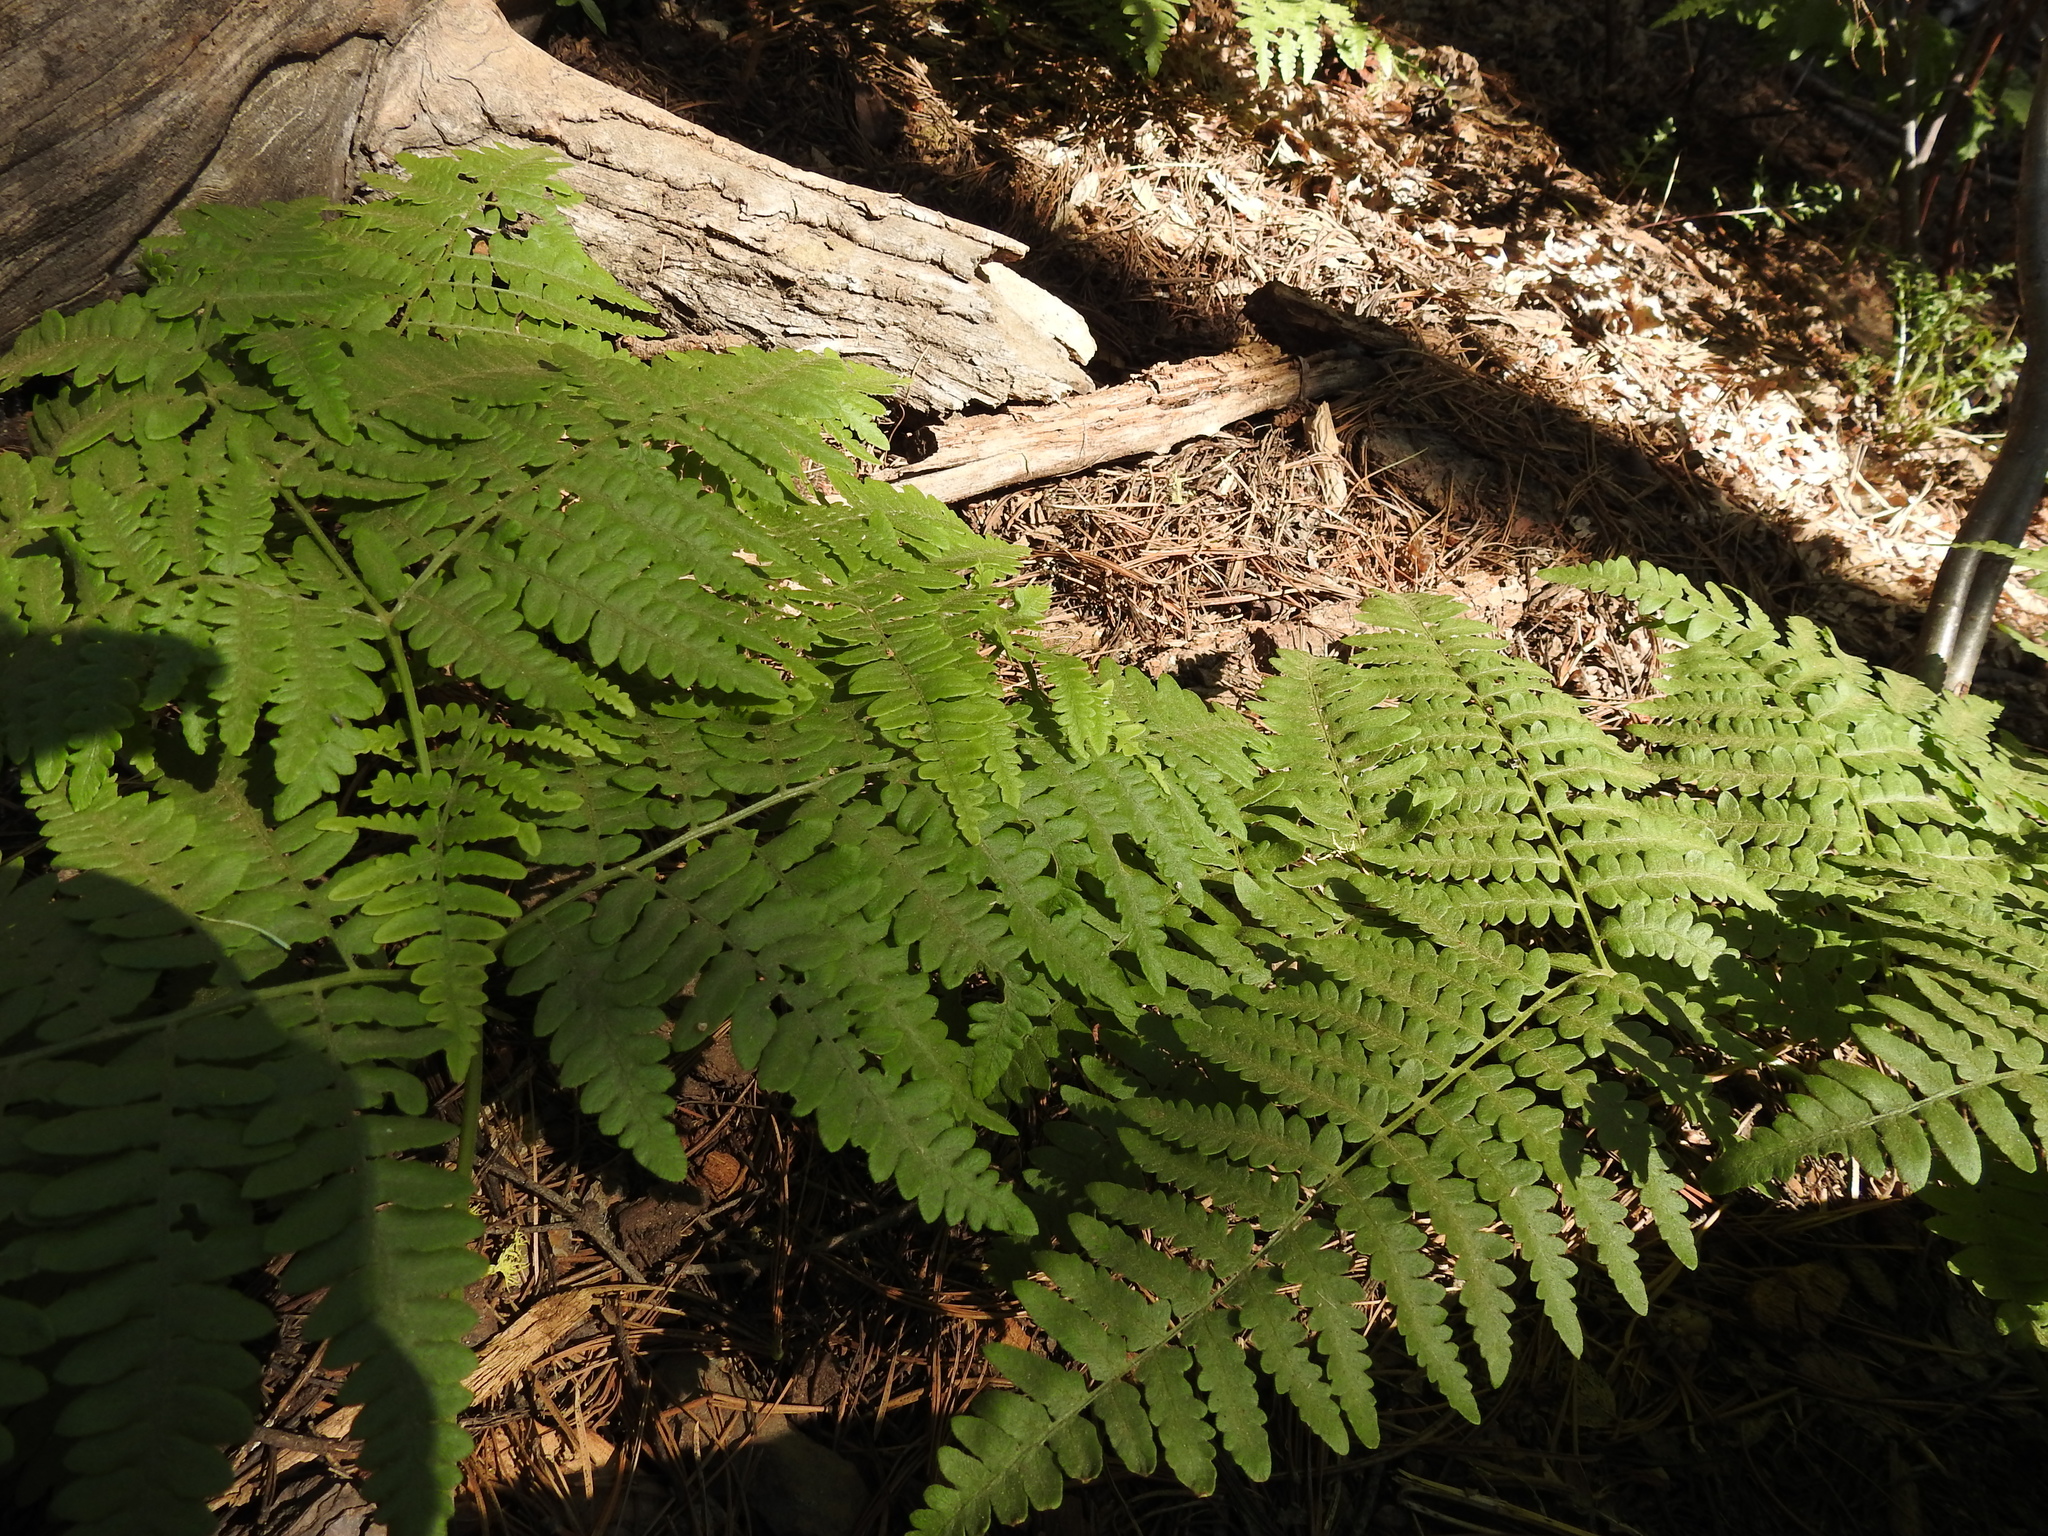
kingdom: Plantae
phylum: Tracheophyta
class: Polypodiopsida
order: Polypodiales
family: Dennstaedtiaceae
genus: Pteridium
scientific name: Pteridium aquilinum
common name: Bracken
